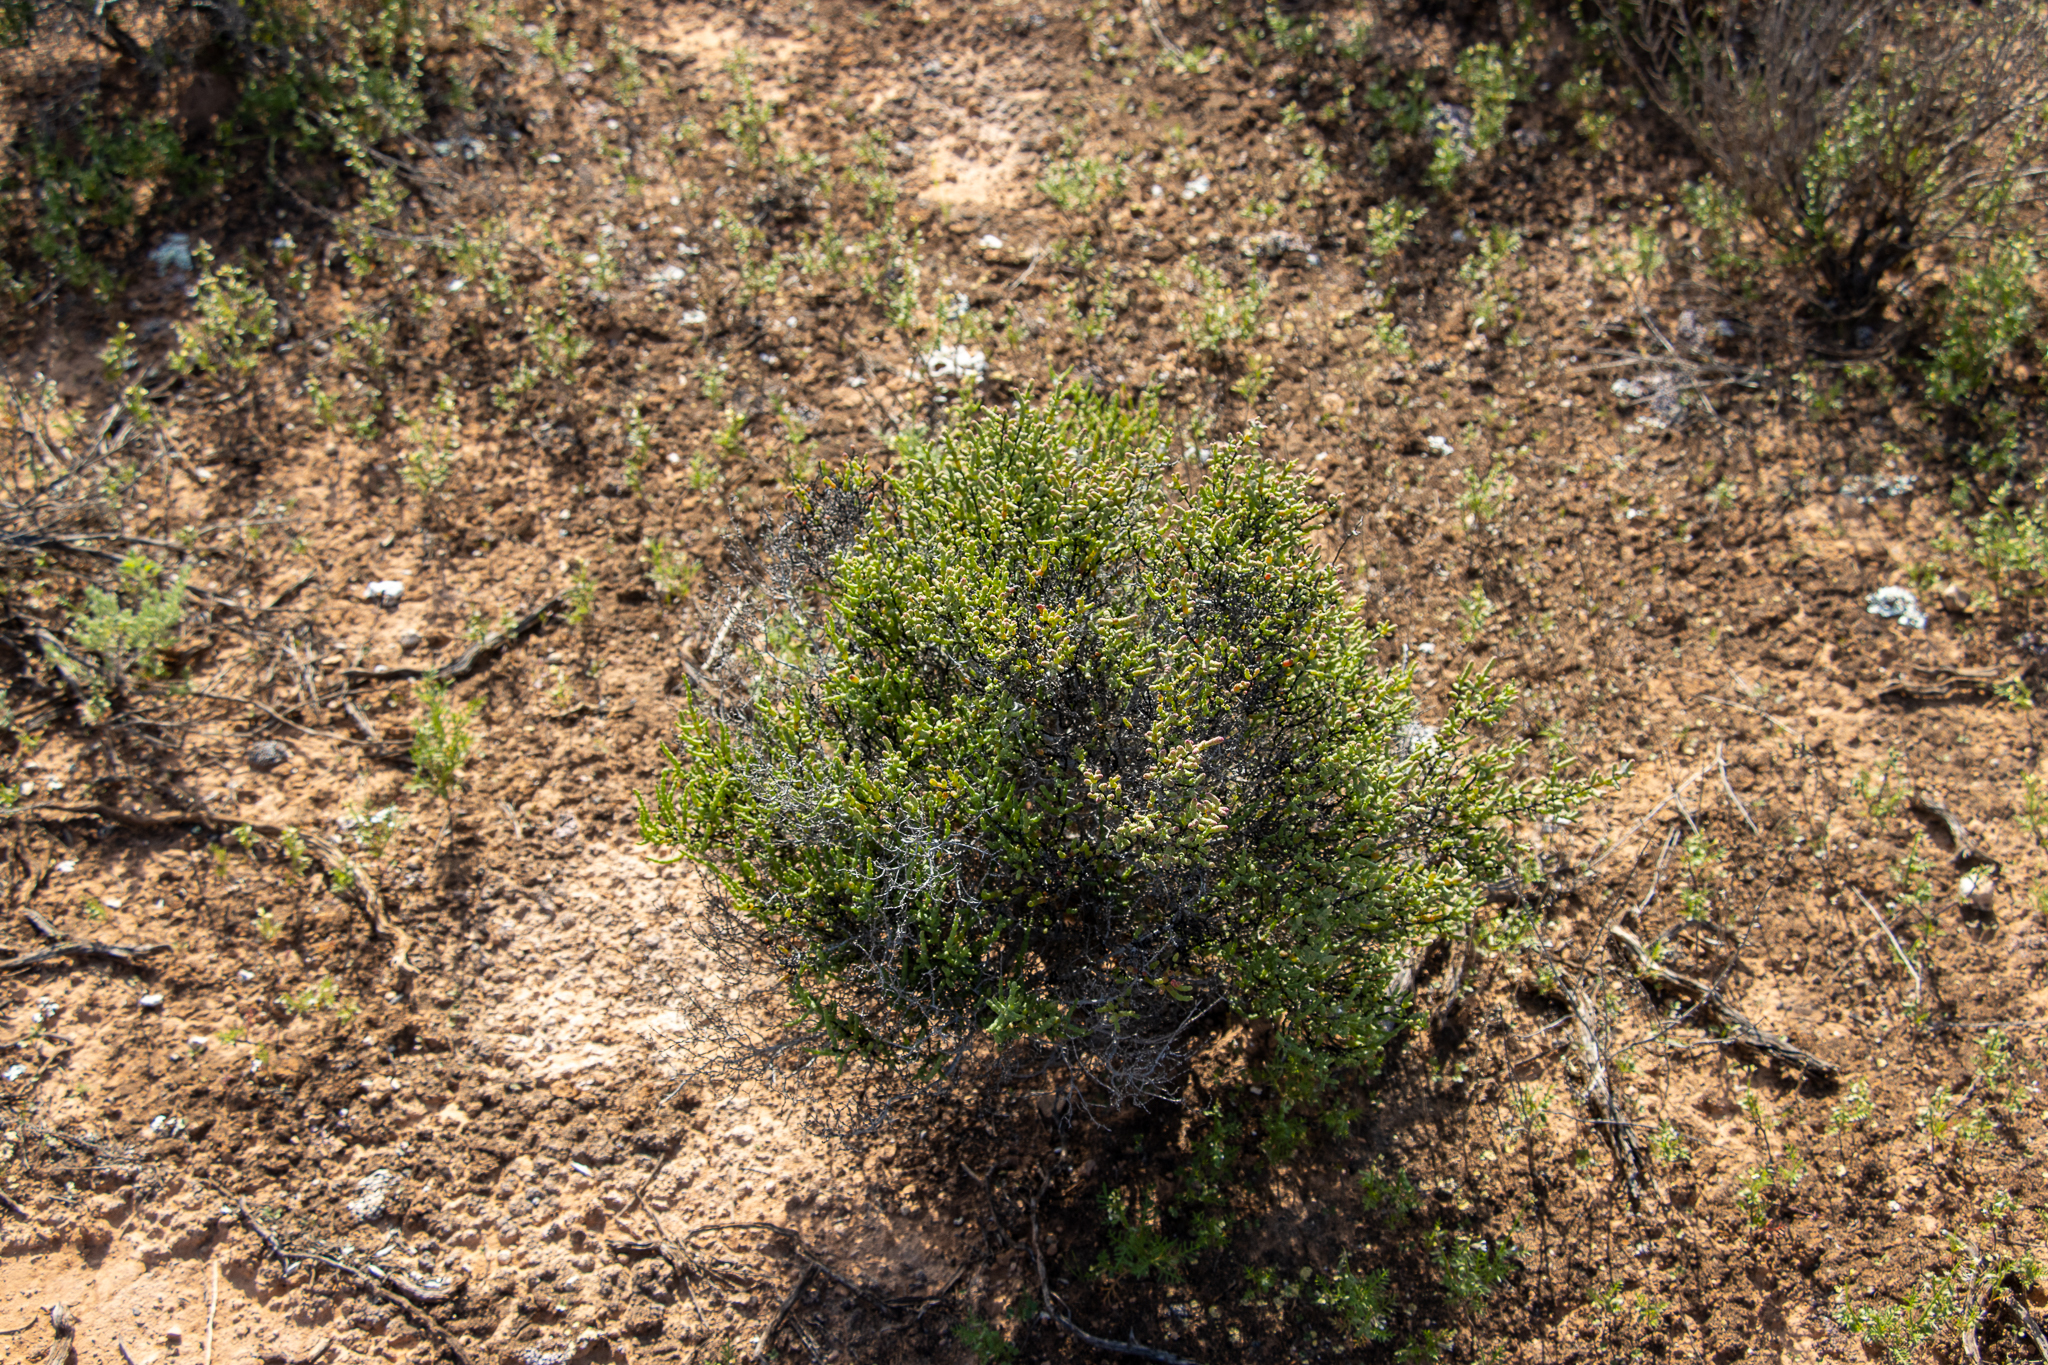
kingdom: Plantae
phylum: Tracheophyta
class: Magnoliopsida
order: Caryophyllales
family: Amaranthaceae
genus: Tecticornia
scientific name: Tecticornia disarticulata
